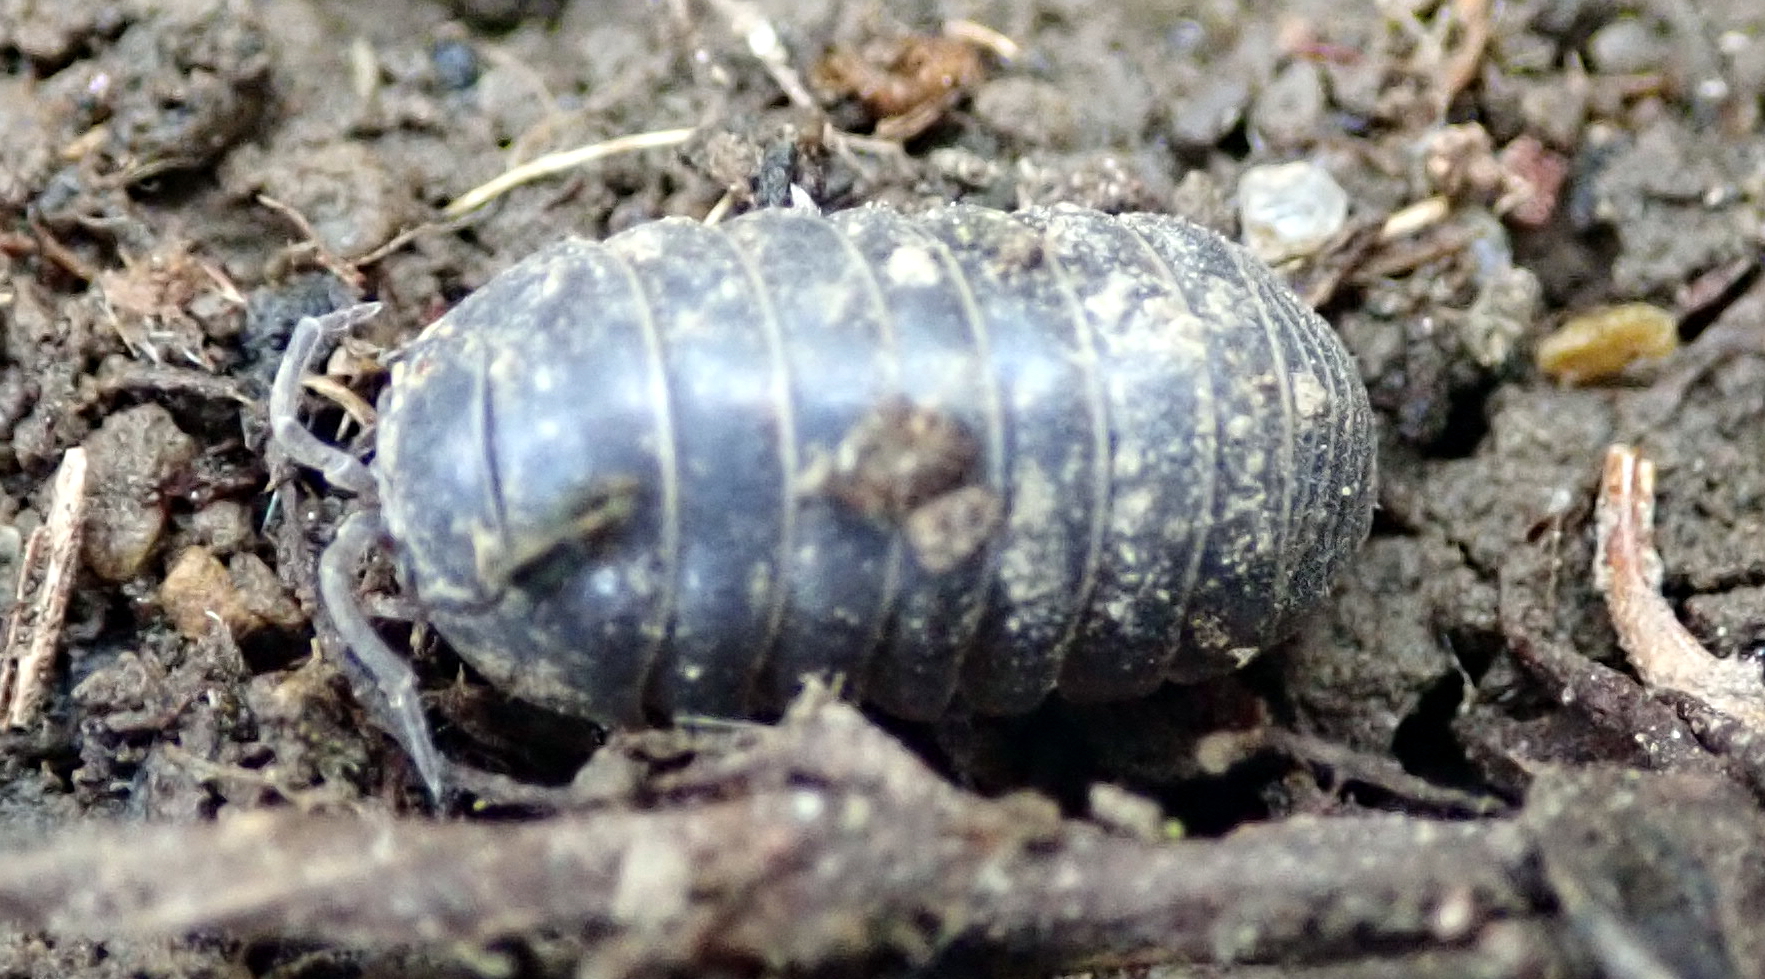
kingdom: Animalia
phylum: Arthropoda
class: Malacostraca
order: Isopoda
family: Armadillidiidae
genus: Armadillidium
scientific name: Armadillidium vulgare
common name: Common pill woodlouse
